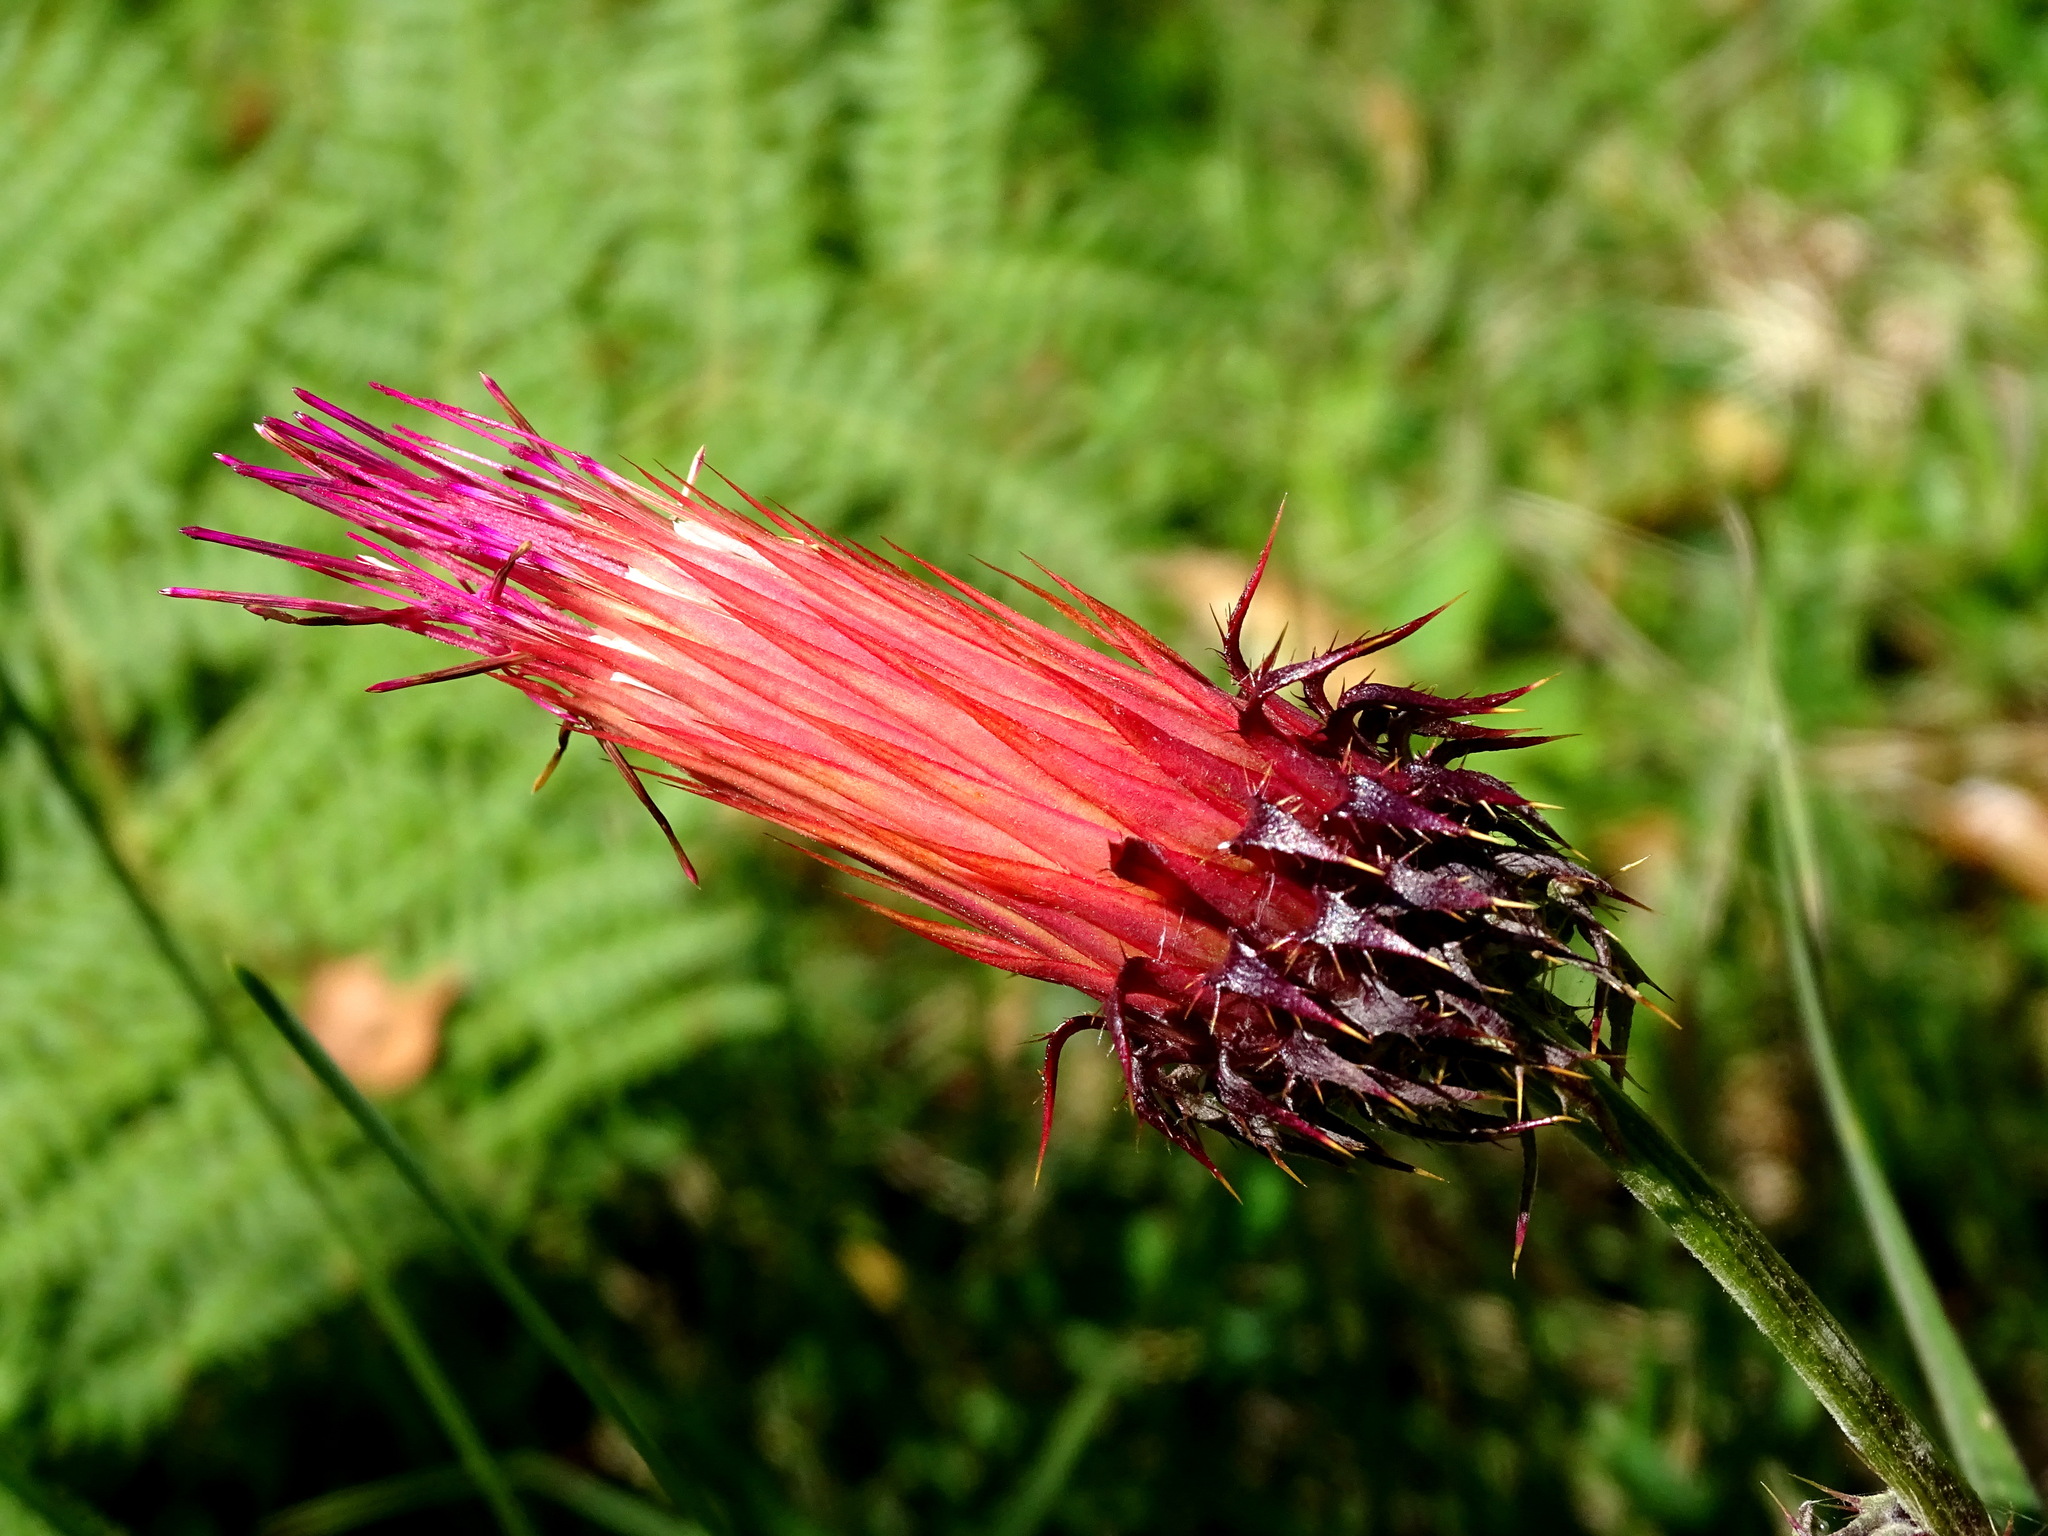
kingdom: Plantae
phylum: Tracheophyta
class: Magnoliopsida
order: Asterales
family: Asteraceae
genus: Cirsium
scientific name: Cirsium ehrenbergii
